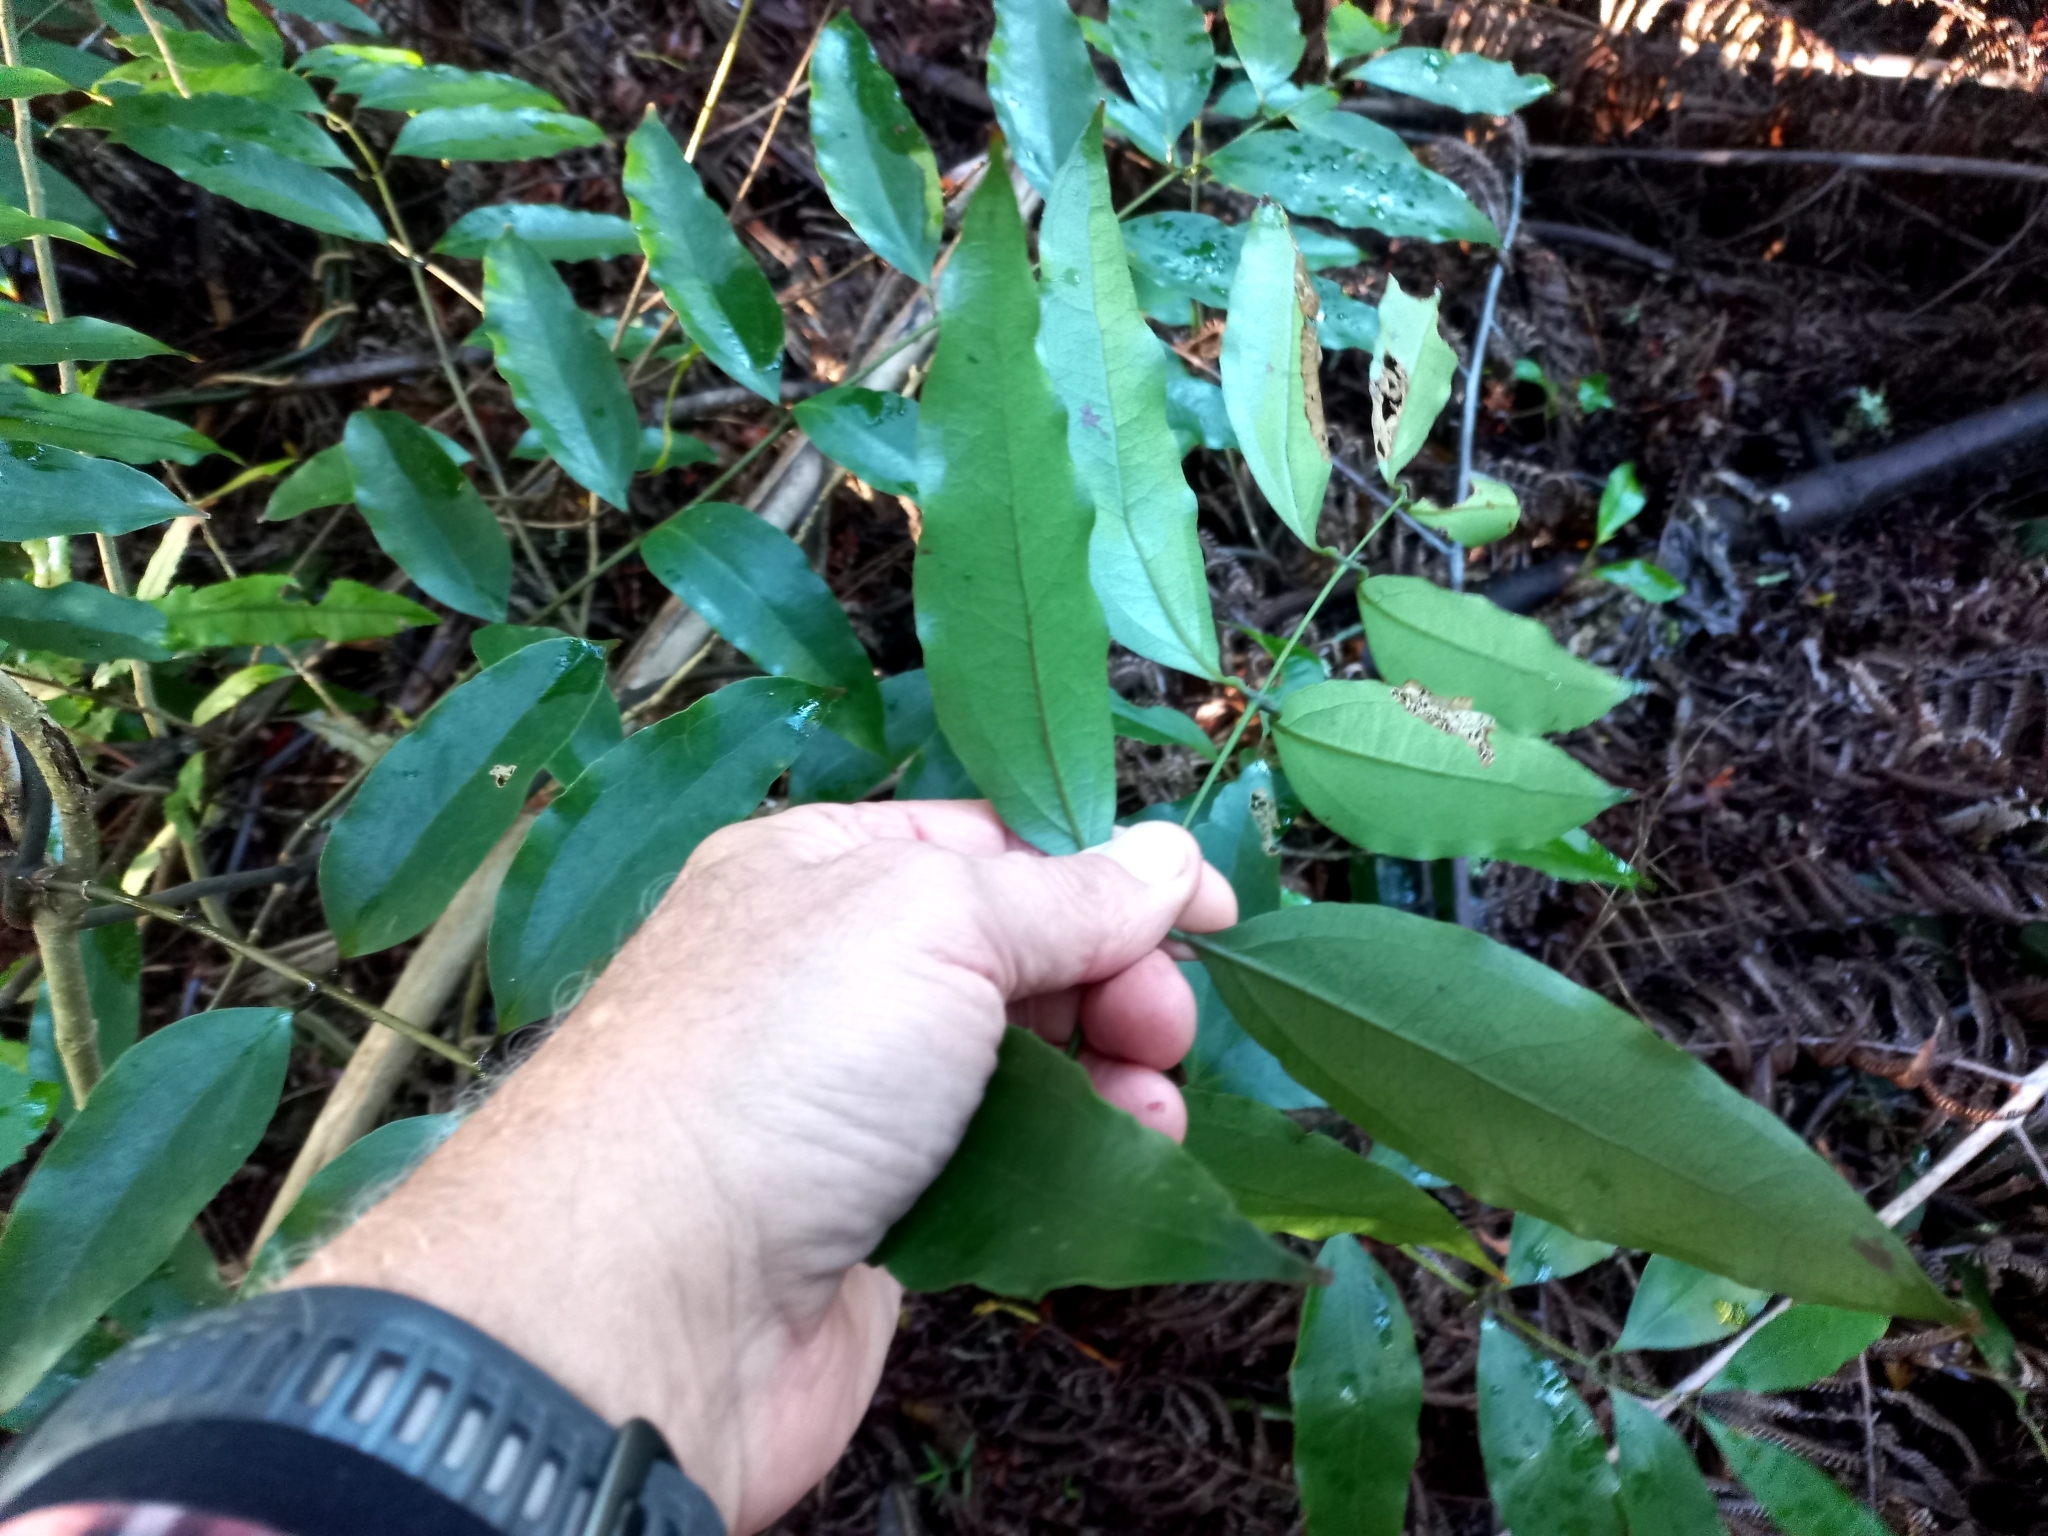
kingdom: Plantae
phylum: Tracheophyta
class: Liliopsida
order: Liliales
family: Ripogonaceae
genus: Ripogonum
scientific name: Ripogonum scandens
